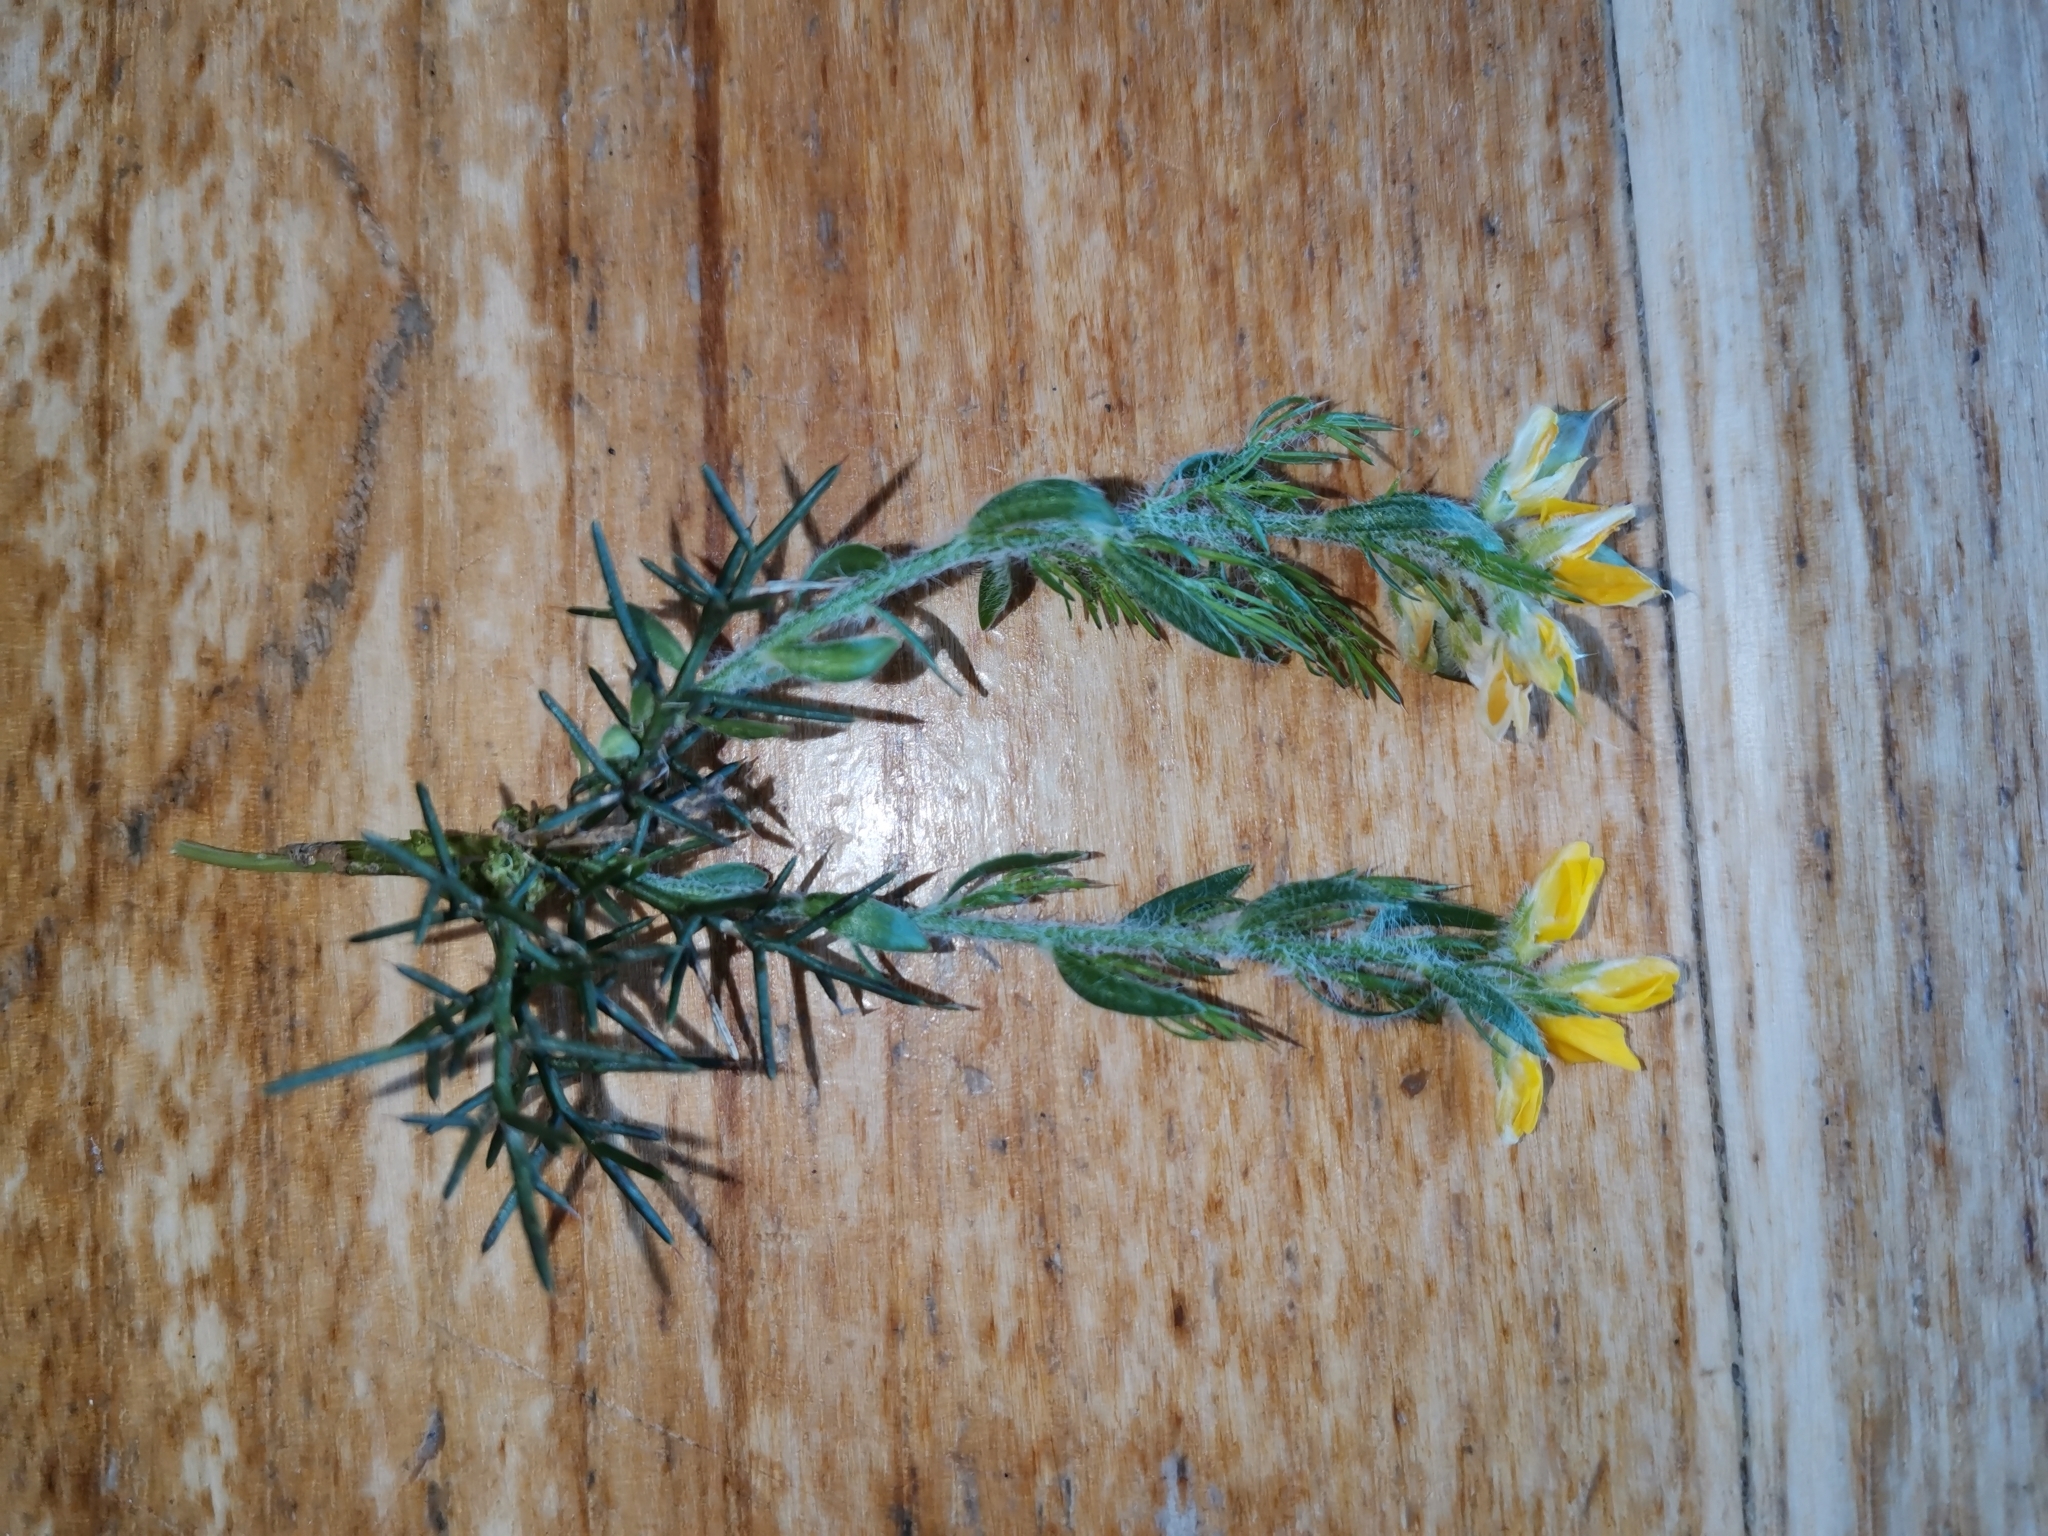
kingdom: Plantae
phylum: Tracheophyta
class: Magnoliopsida
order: Fabales
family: Fabaceae
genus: Genista
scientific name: Genista hispanica
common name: Spanish gorse
